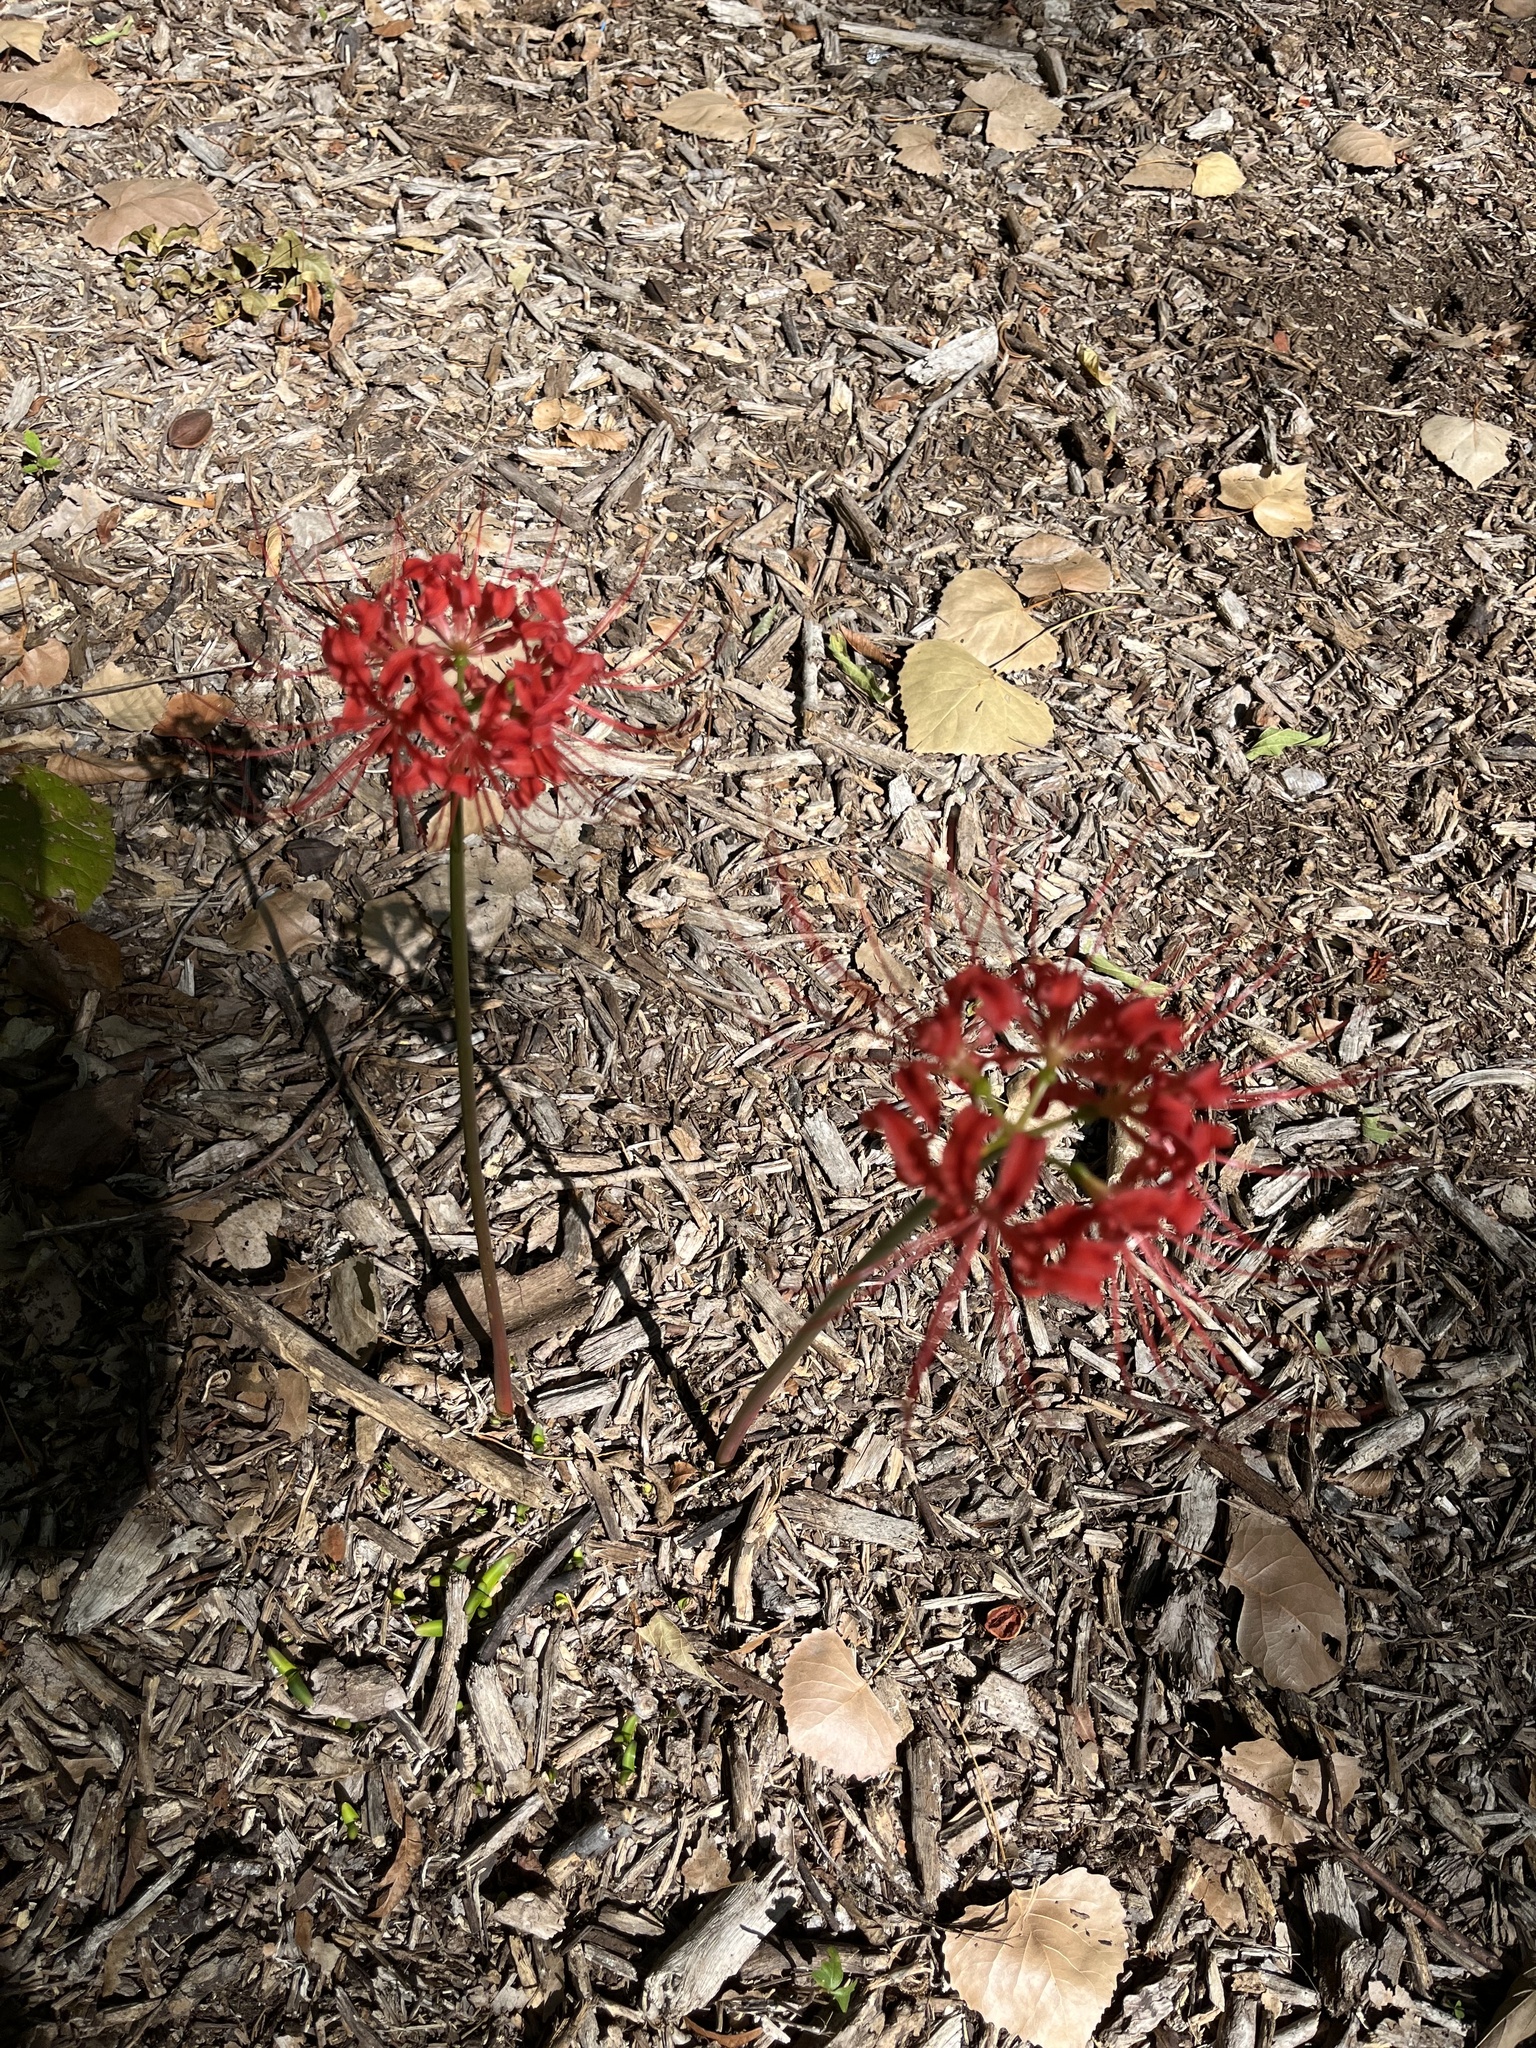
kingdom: Plantae
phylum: Tracheophyta
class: Liliopsida
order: Asparagales
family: Amaryllidaceae
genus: Lycoris
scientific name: Lycoris radiata
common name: Red spider lily
